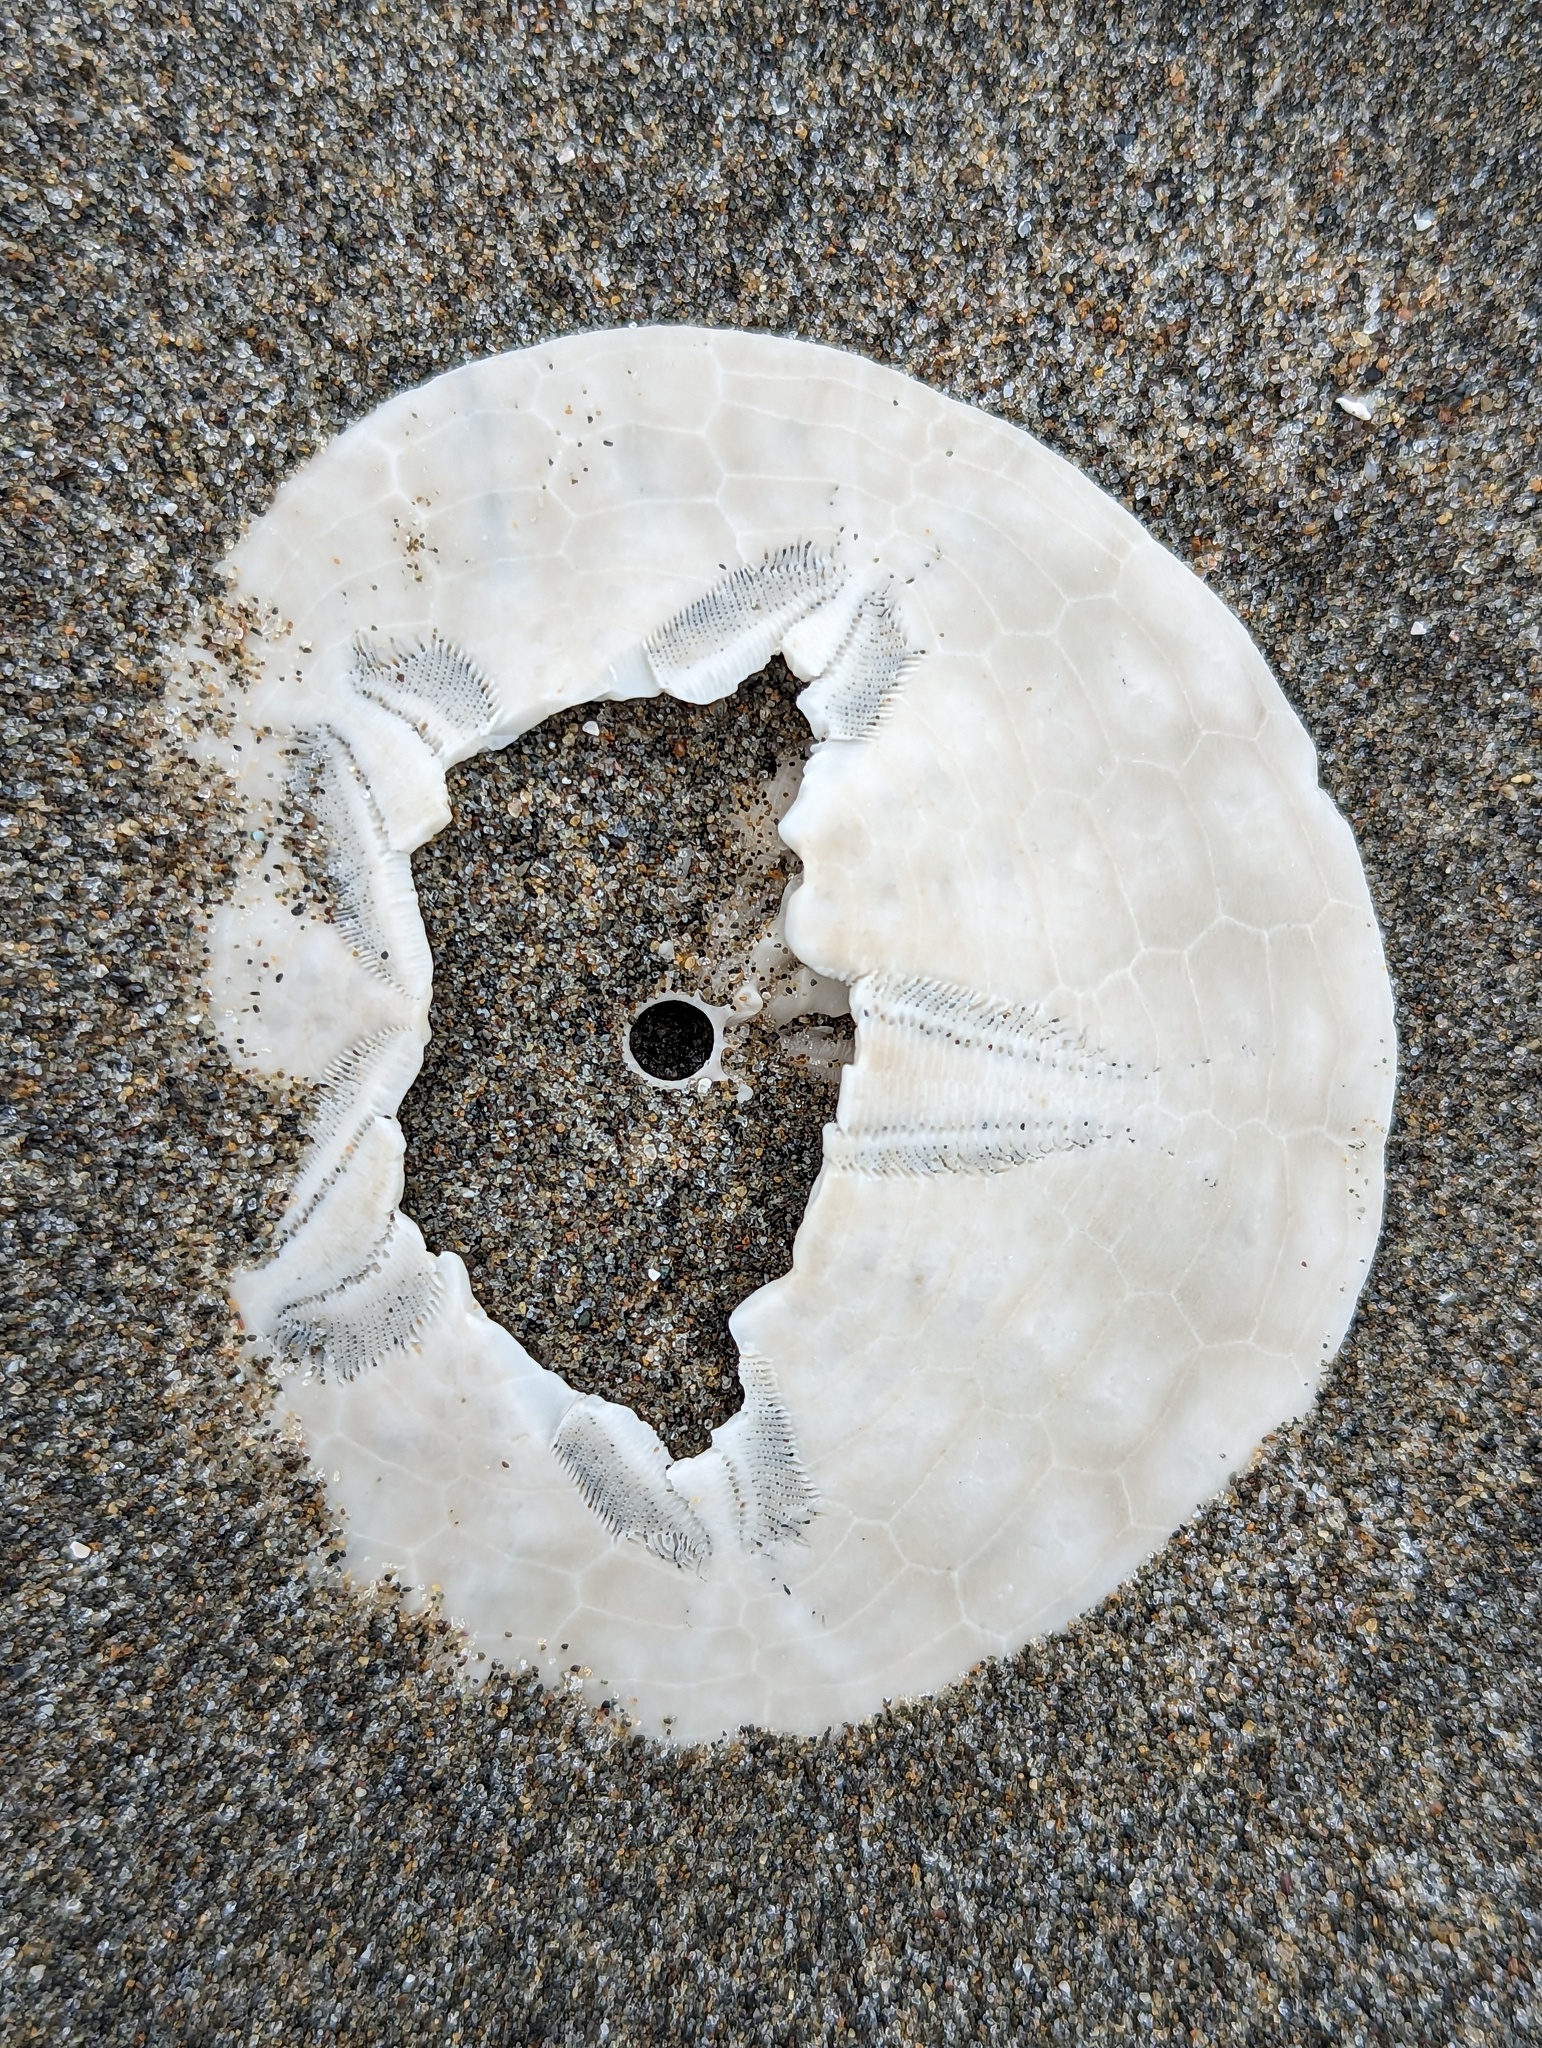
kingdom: Animalia
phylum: Echinodermata
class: Echinoidea
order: Echinolampadacea
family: Dendrasteridae
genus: Dendraster
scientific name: Dendraster excentricus
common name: Eccentric sand dollar sea urchin
